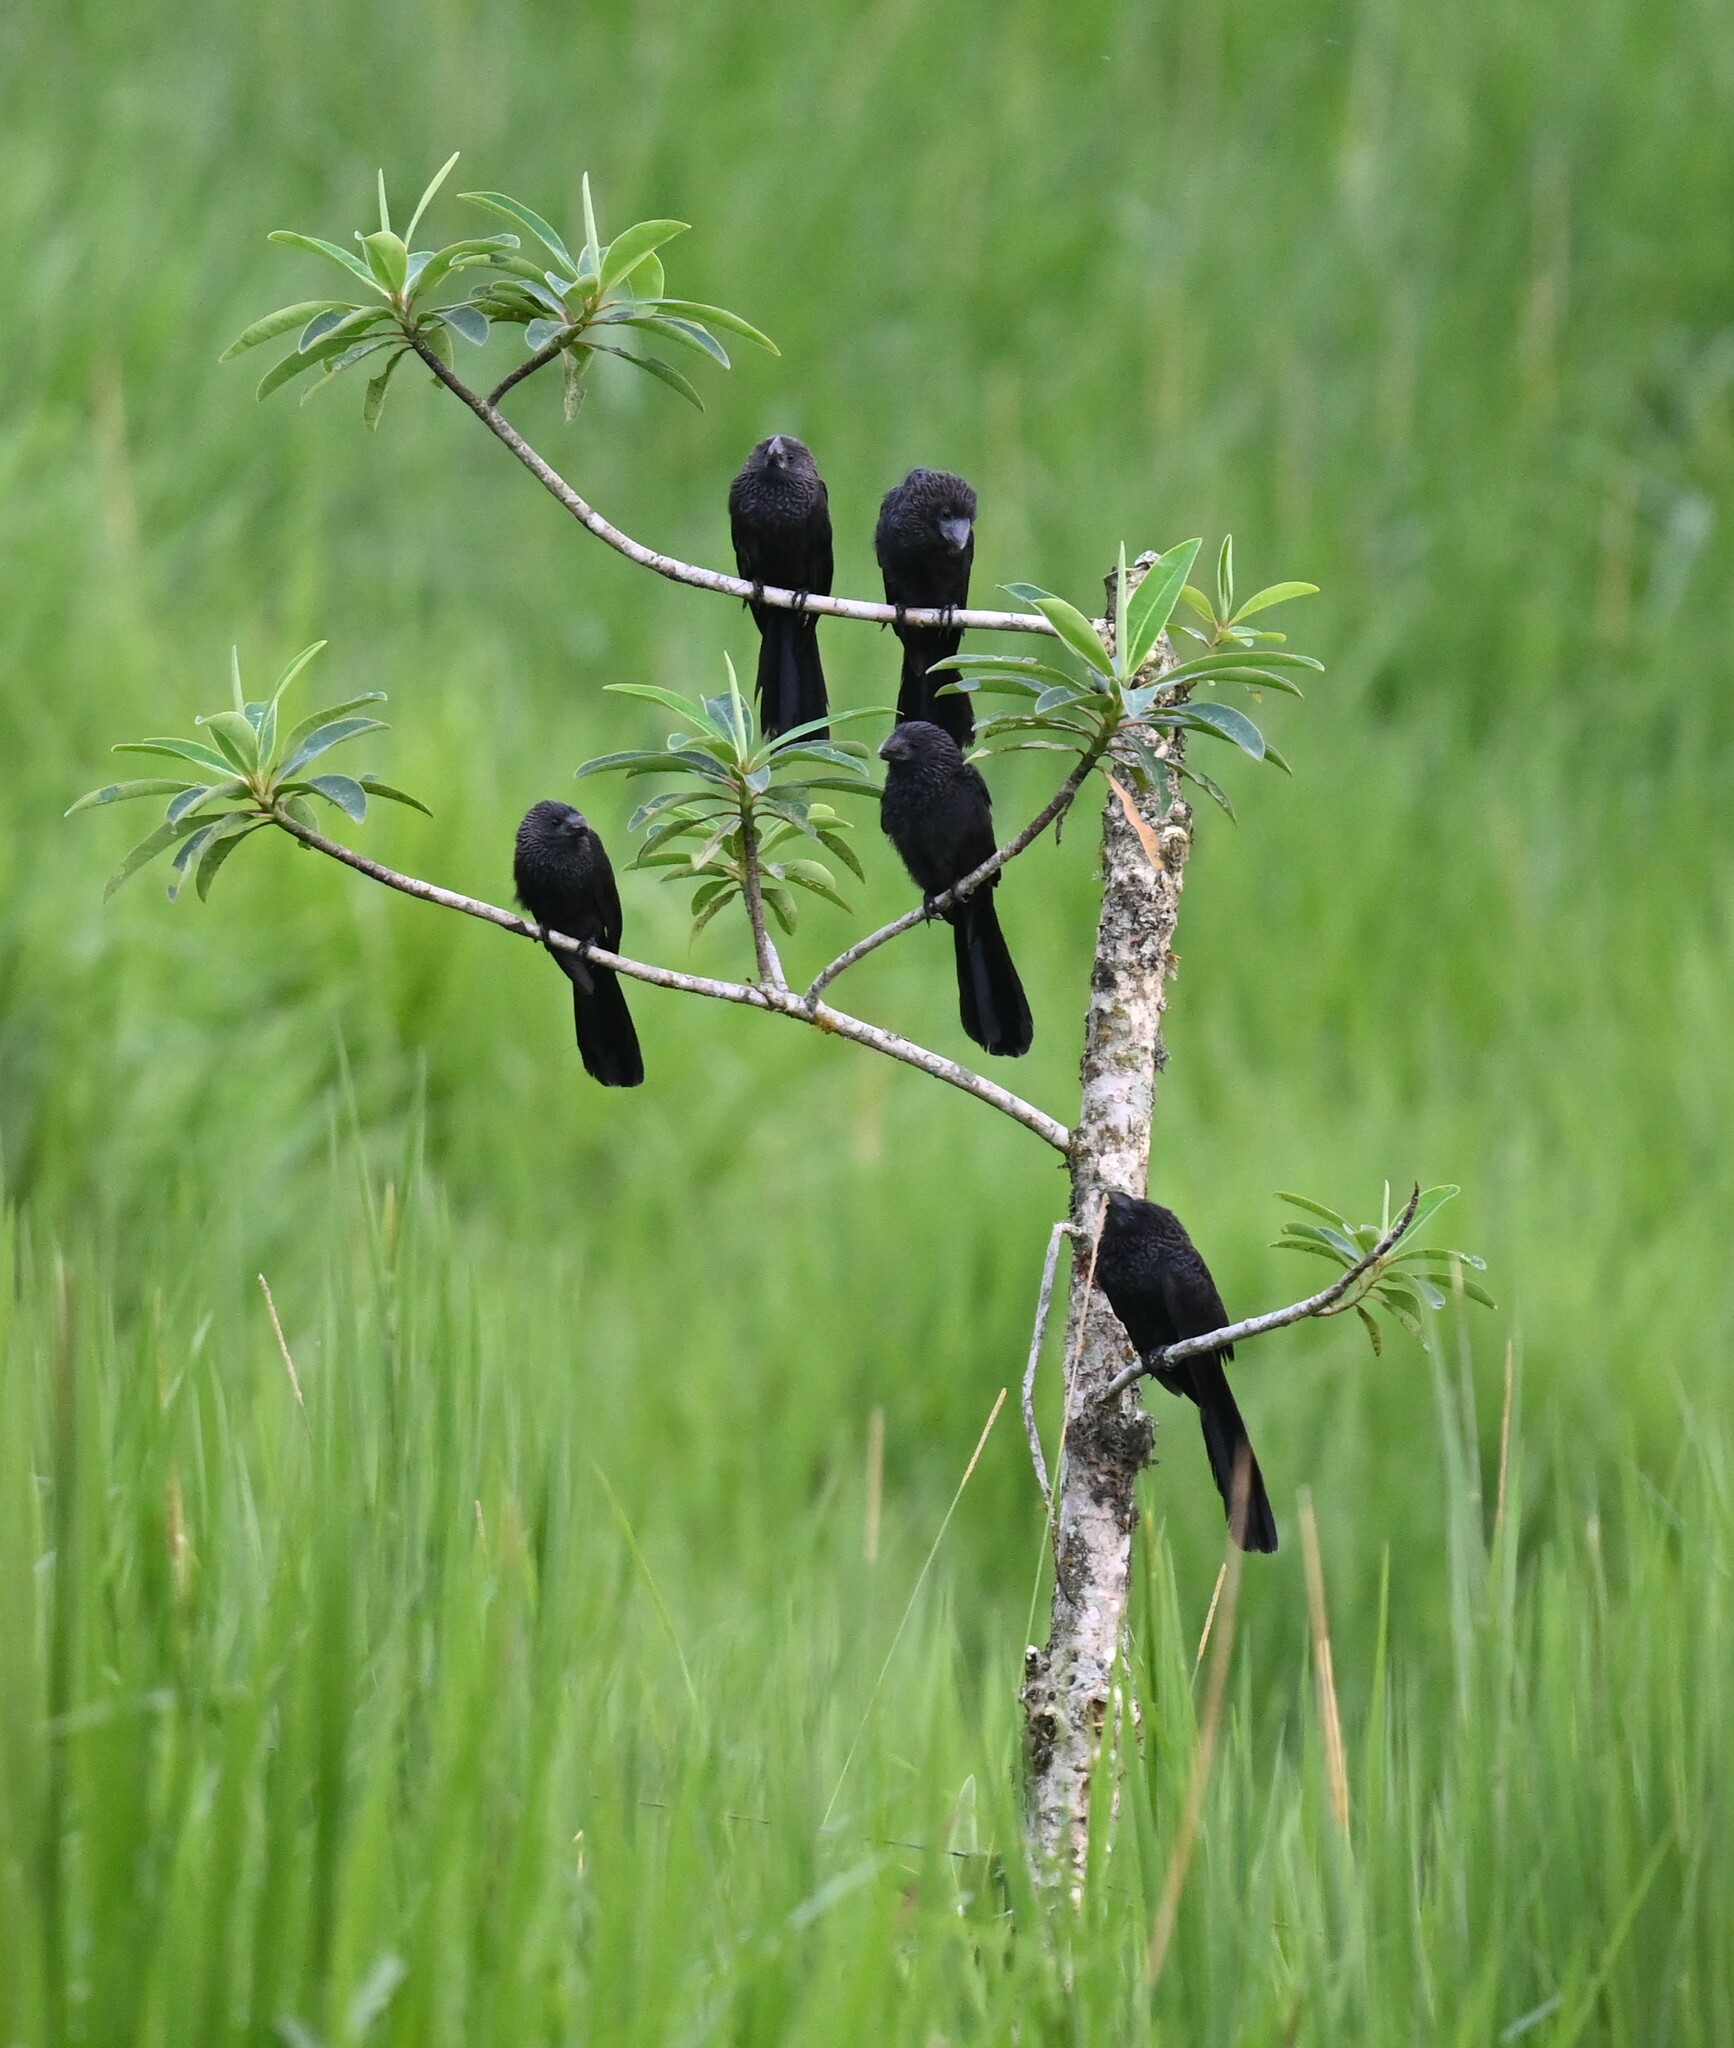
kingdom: Animalia
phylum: Chordata
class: Aves
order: Cuculiformes
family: Cuculidae
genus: Crotophaga
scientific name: Crotophaga ani
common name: Smooth-billed ani
